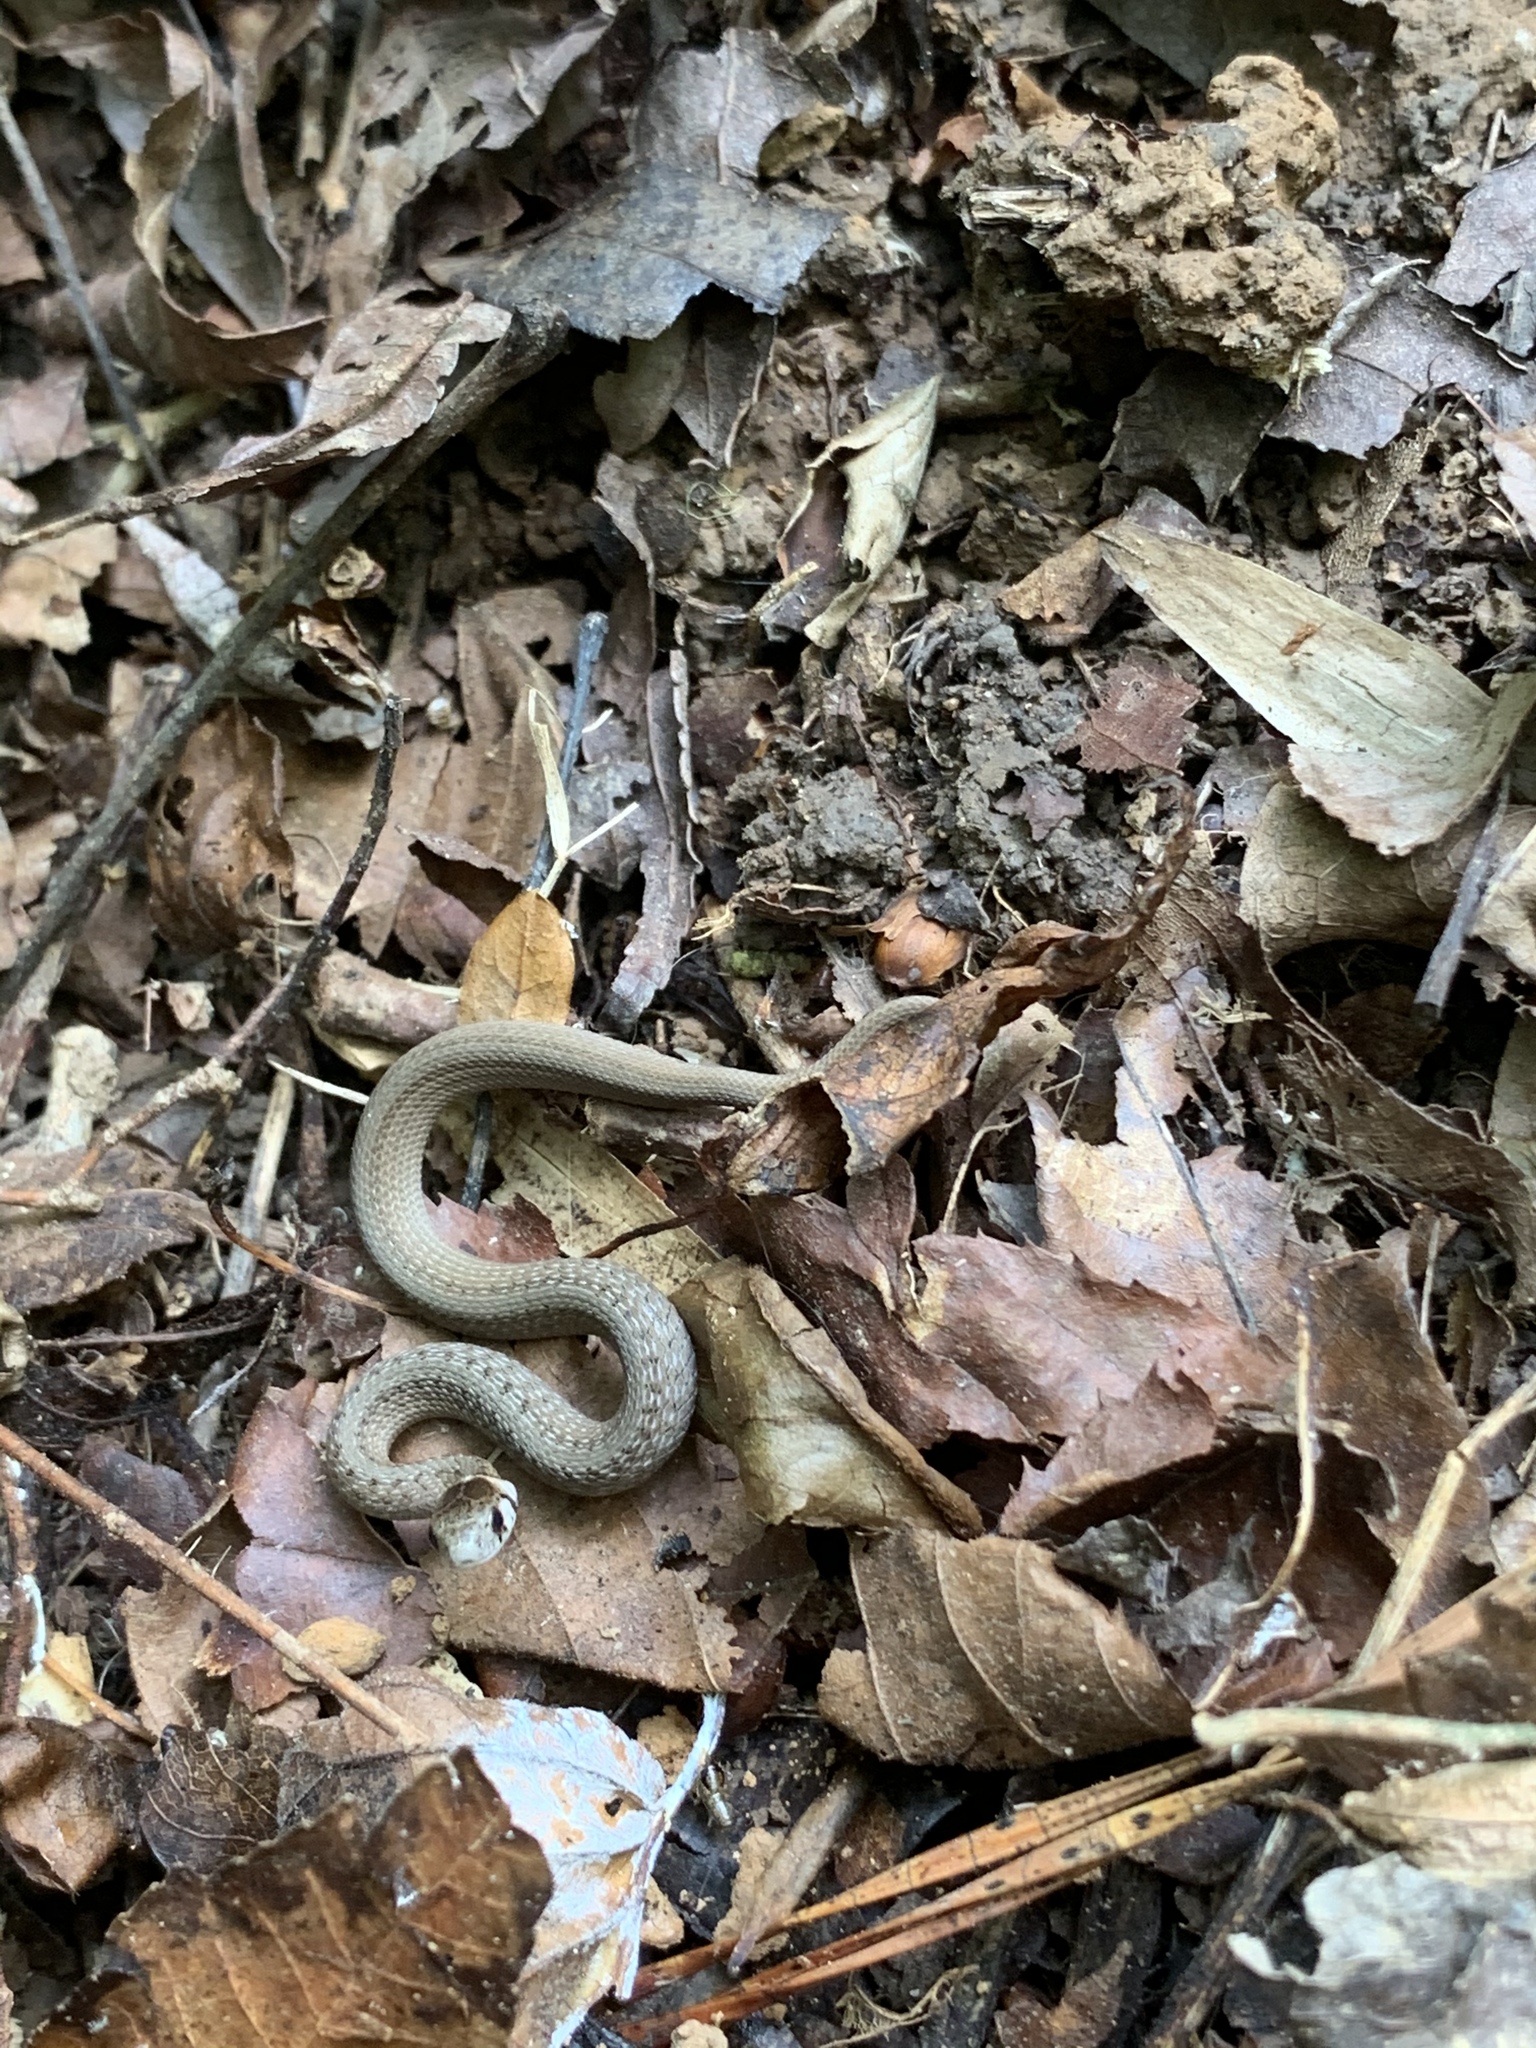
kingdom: Animalia
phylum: Chordata
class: Squamata
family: Colubridae
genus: Storeria
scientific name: Storeria dekayi
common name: (dekay’s) brown snake
